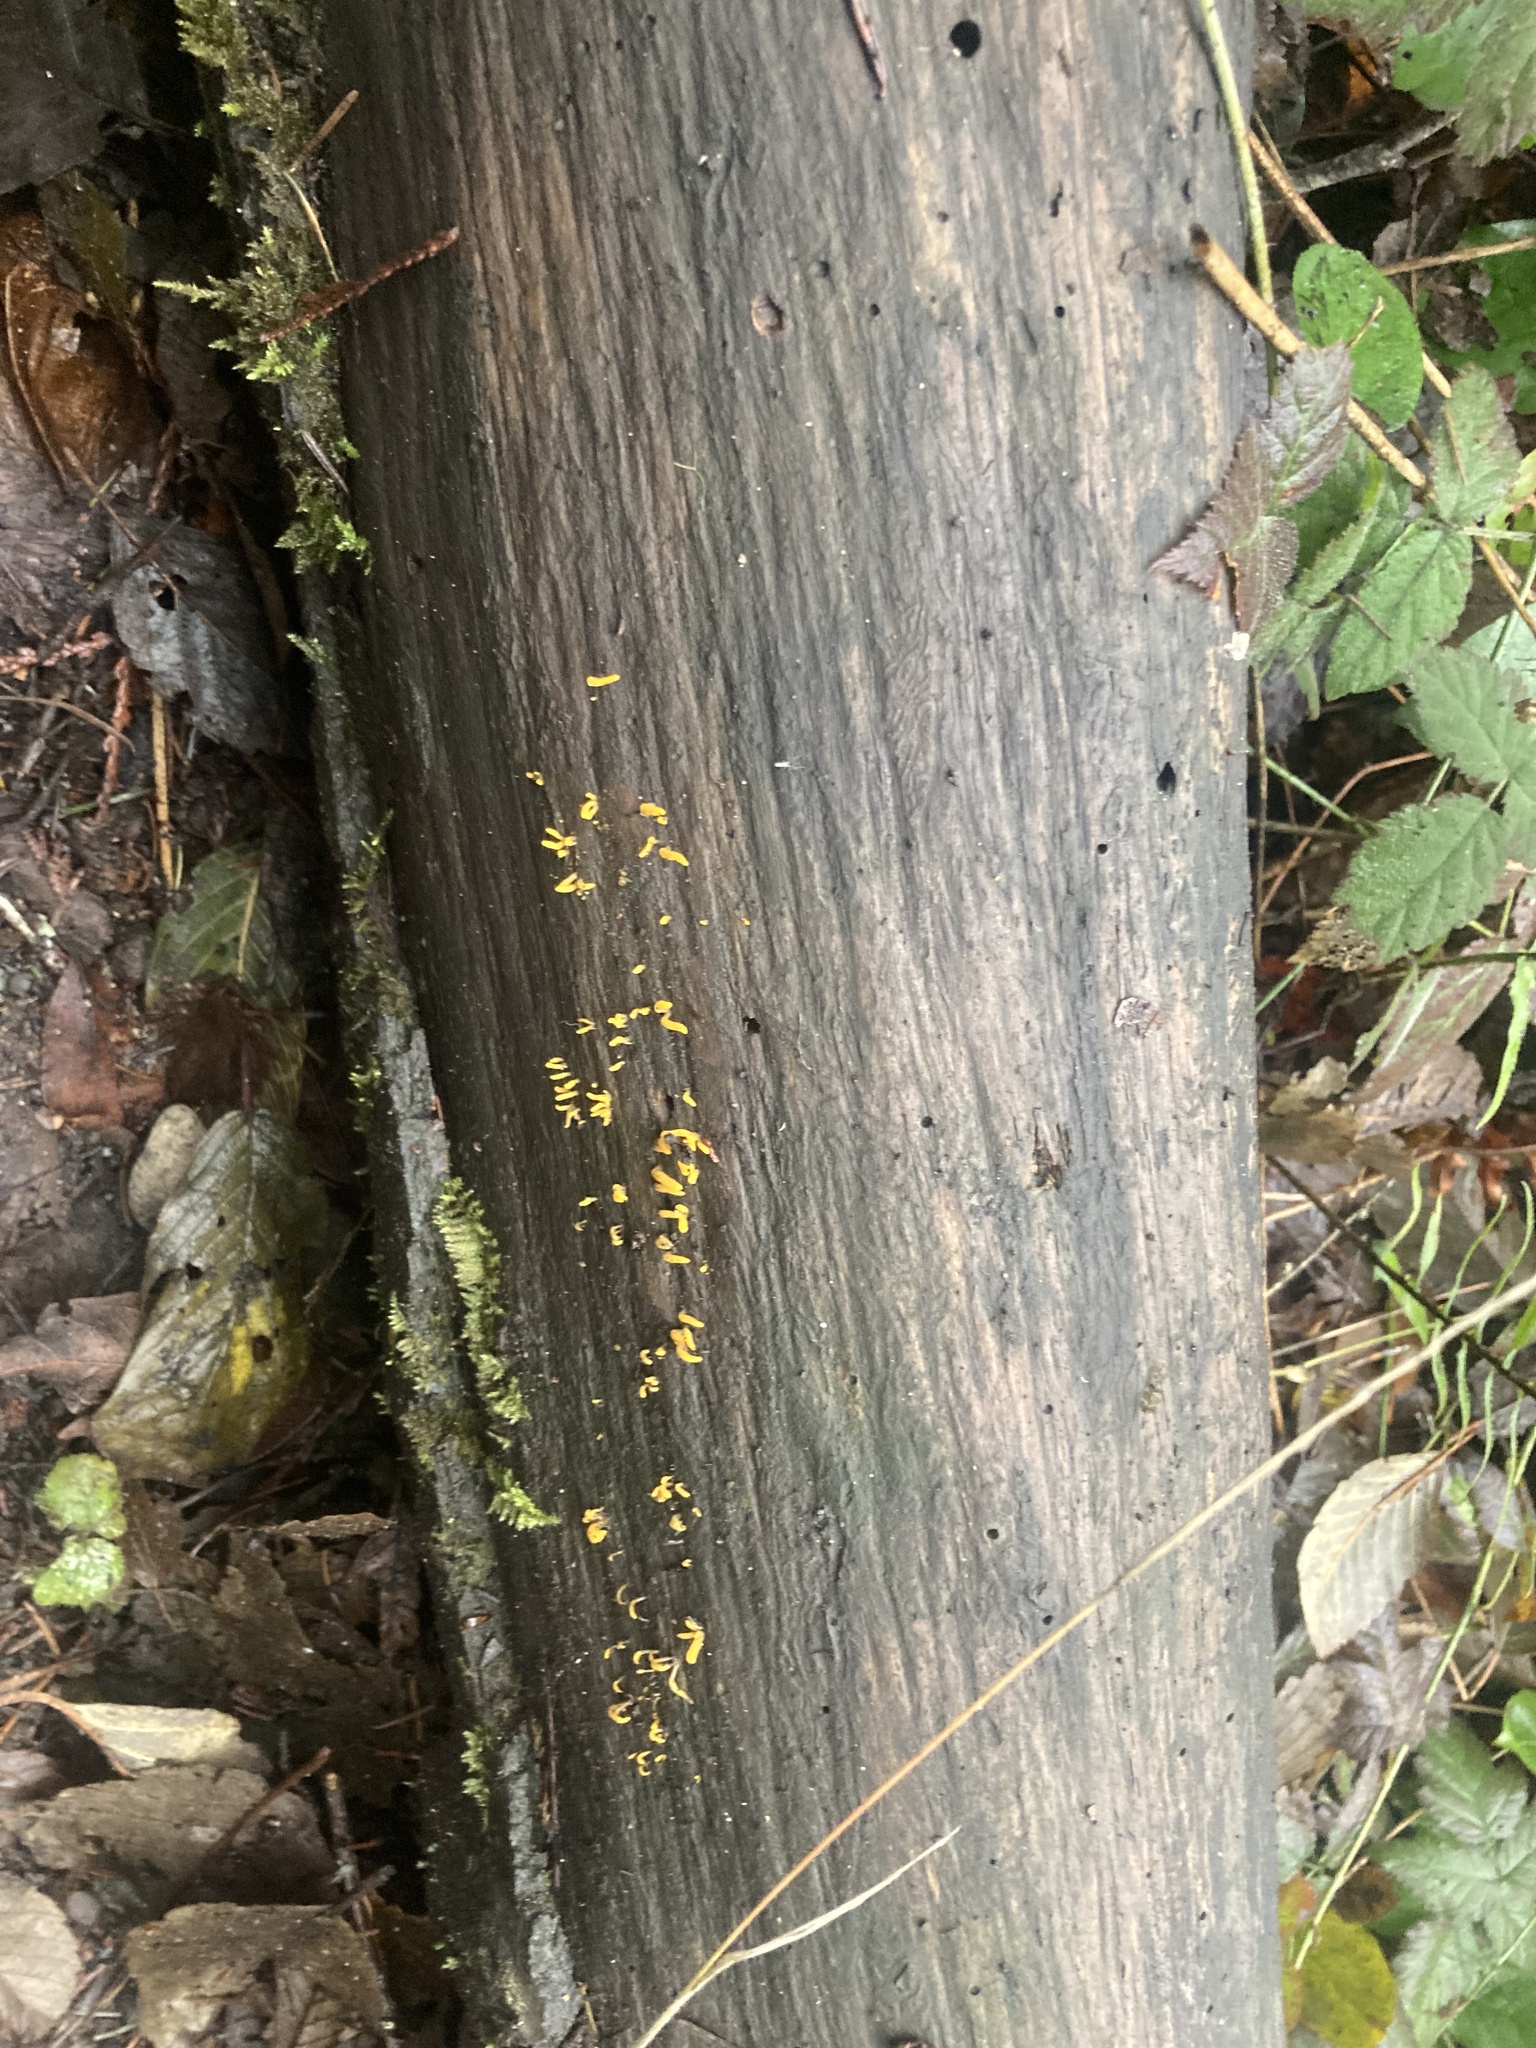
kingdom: Fungi
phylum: Basidiomycota
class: Dacrymycetes
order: Dacrymycetales
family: Dacrymycetaceae
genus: Calocera
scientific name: Calocera cornea
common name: Small stagshorn
